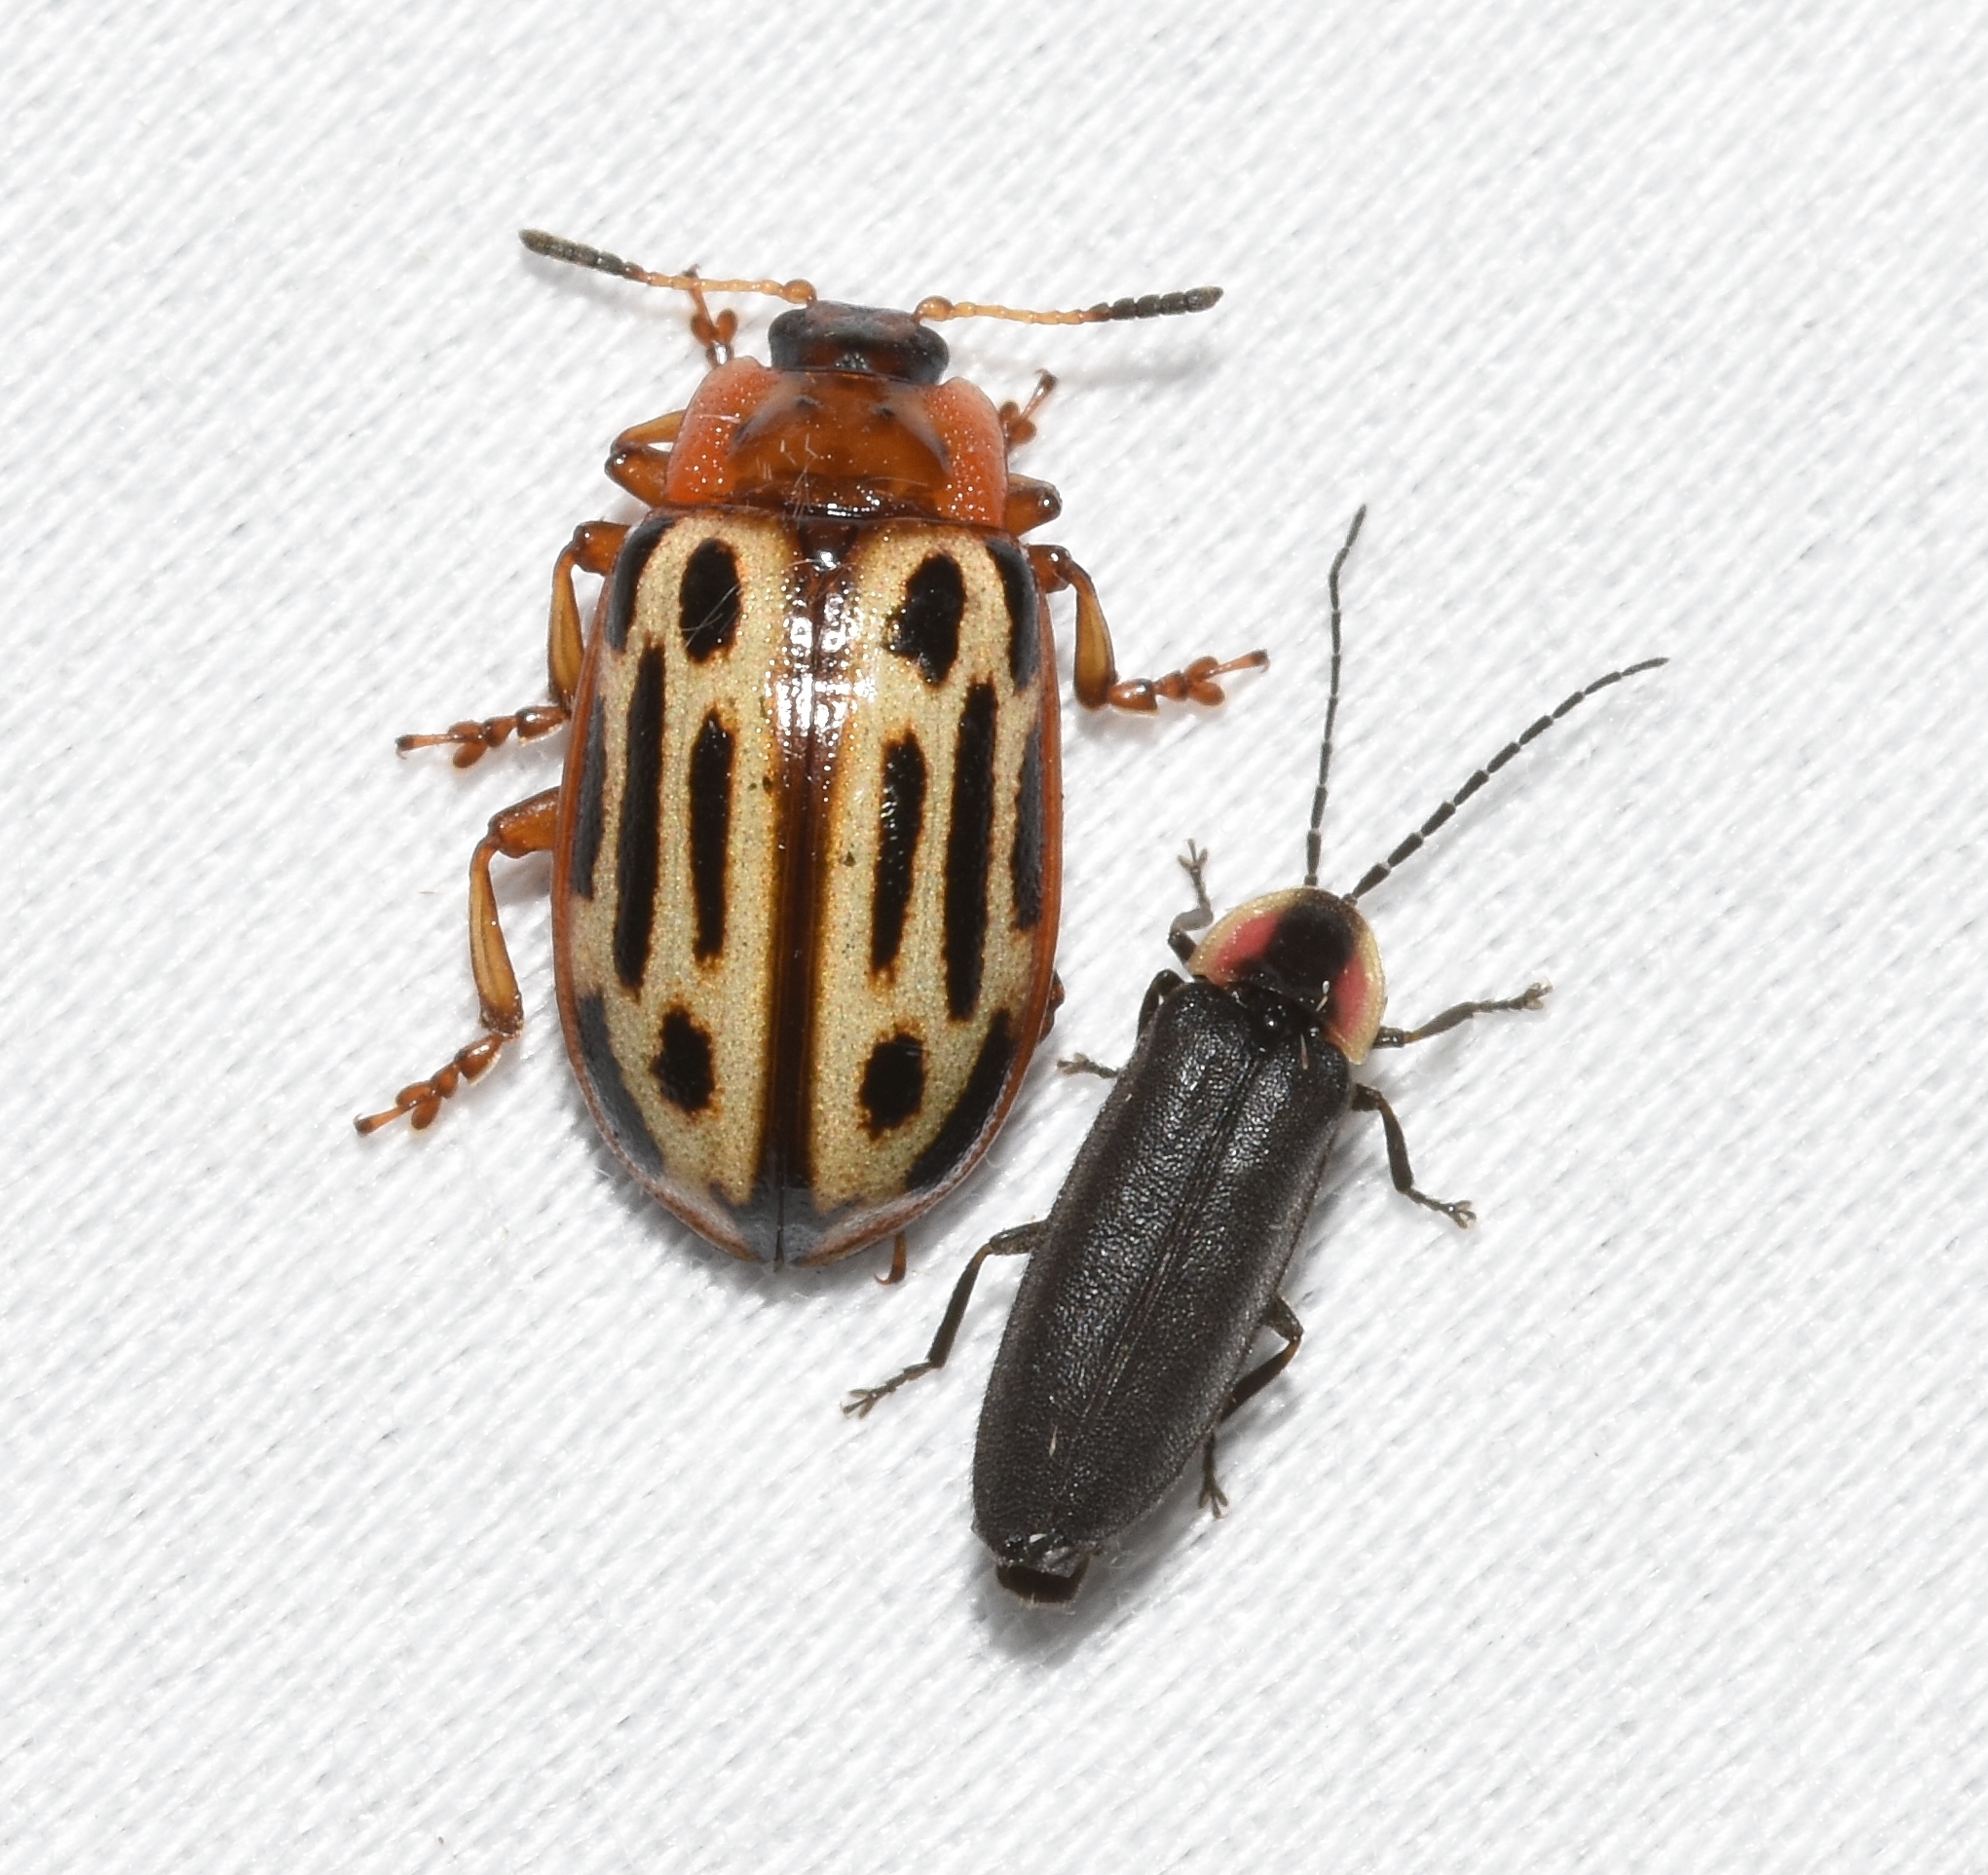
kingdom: Animalia
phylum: Arthropoda
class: Insecta
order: Coleoptera
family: Chrysomelidae
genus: Aethiopocassis
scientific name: Aethiopocassis scripta
